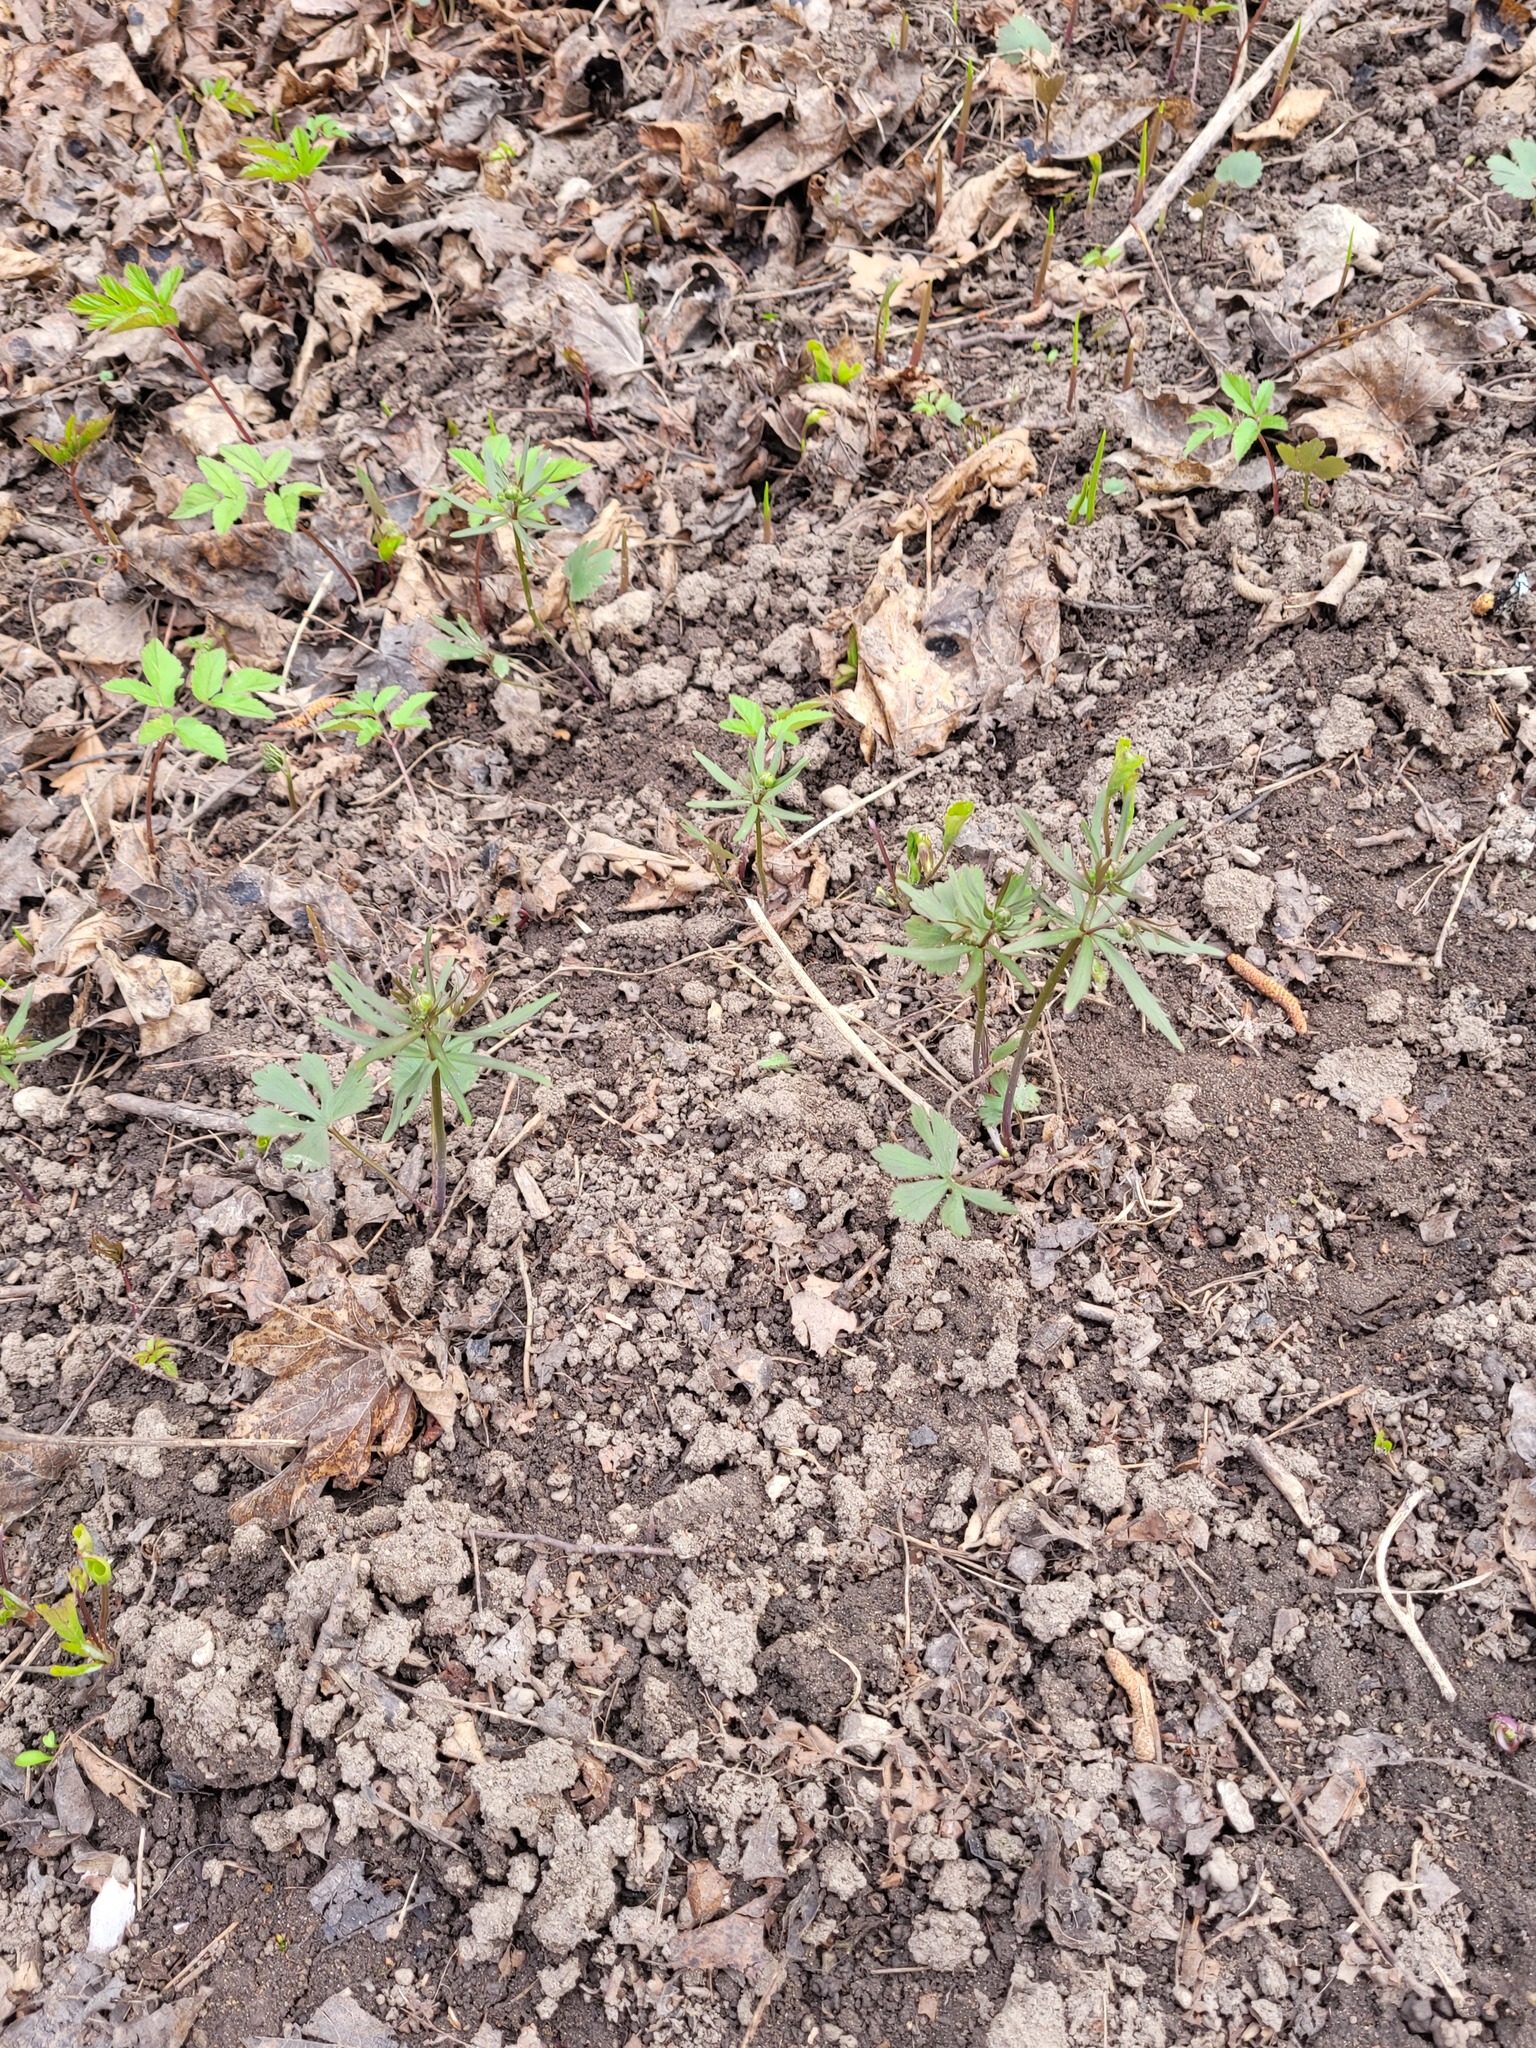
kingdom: Plantae
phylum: Tracheophyta
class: Magnoliopsida
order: Ranunculales
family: Ranunculaceae
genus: Ranunculus
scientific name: Ranunculus auricomus
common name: Goldilocks buttercup
